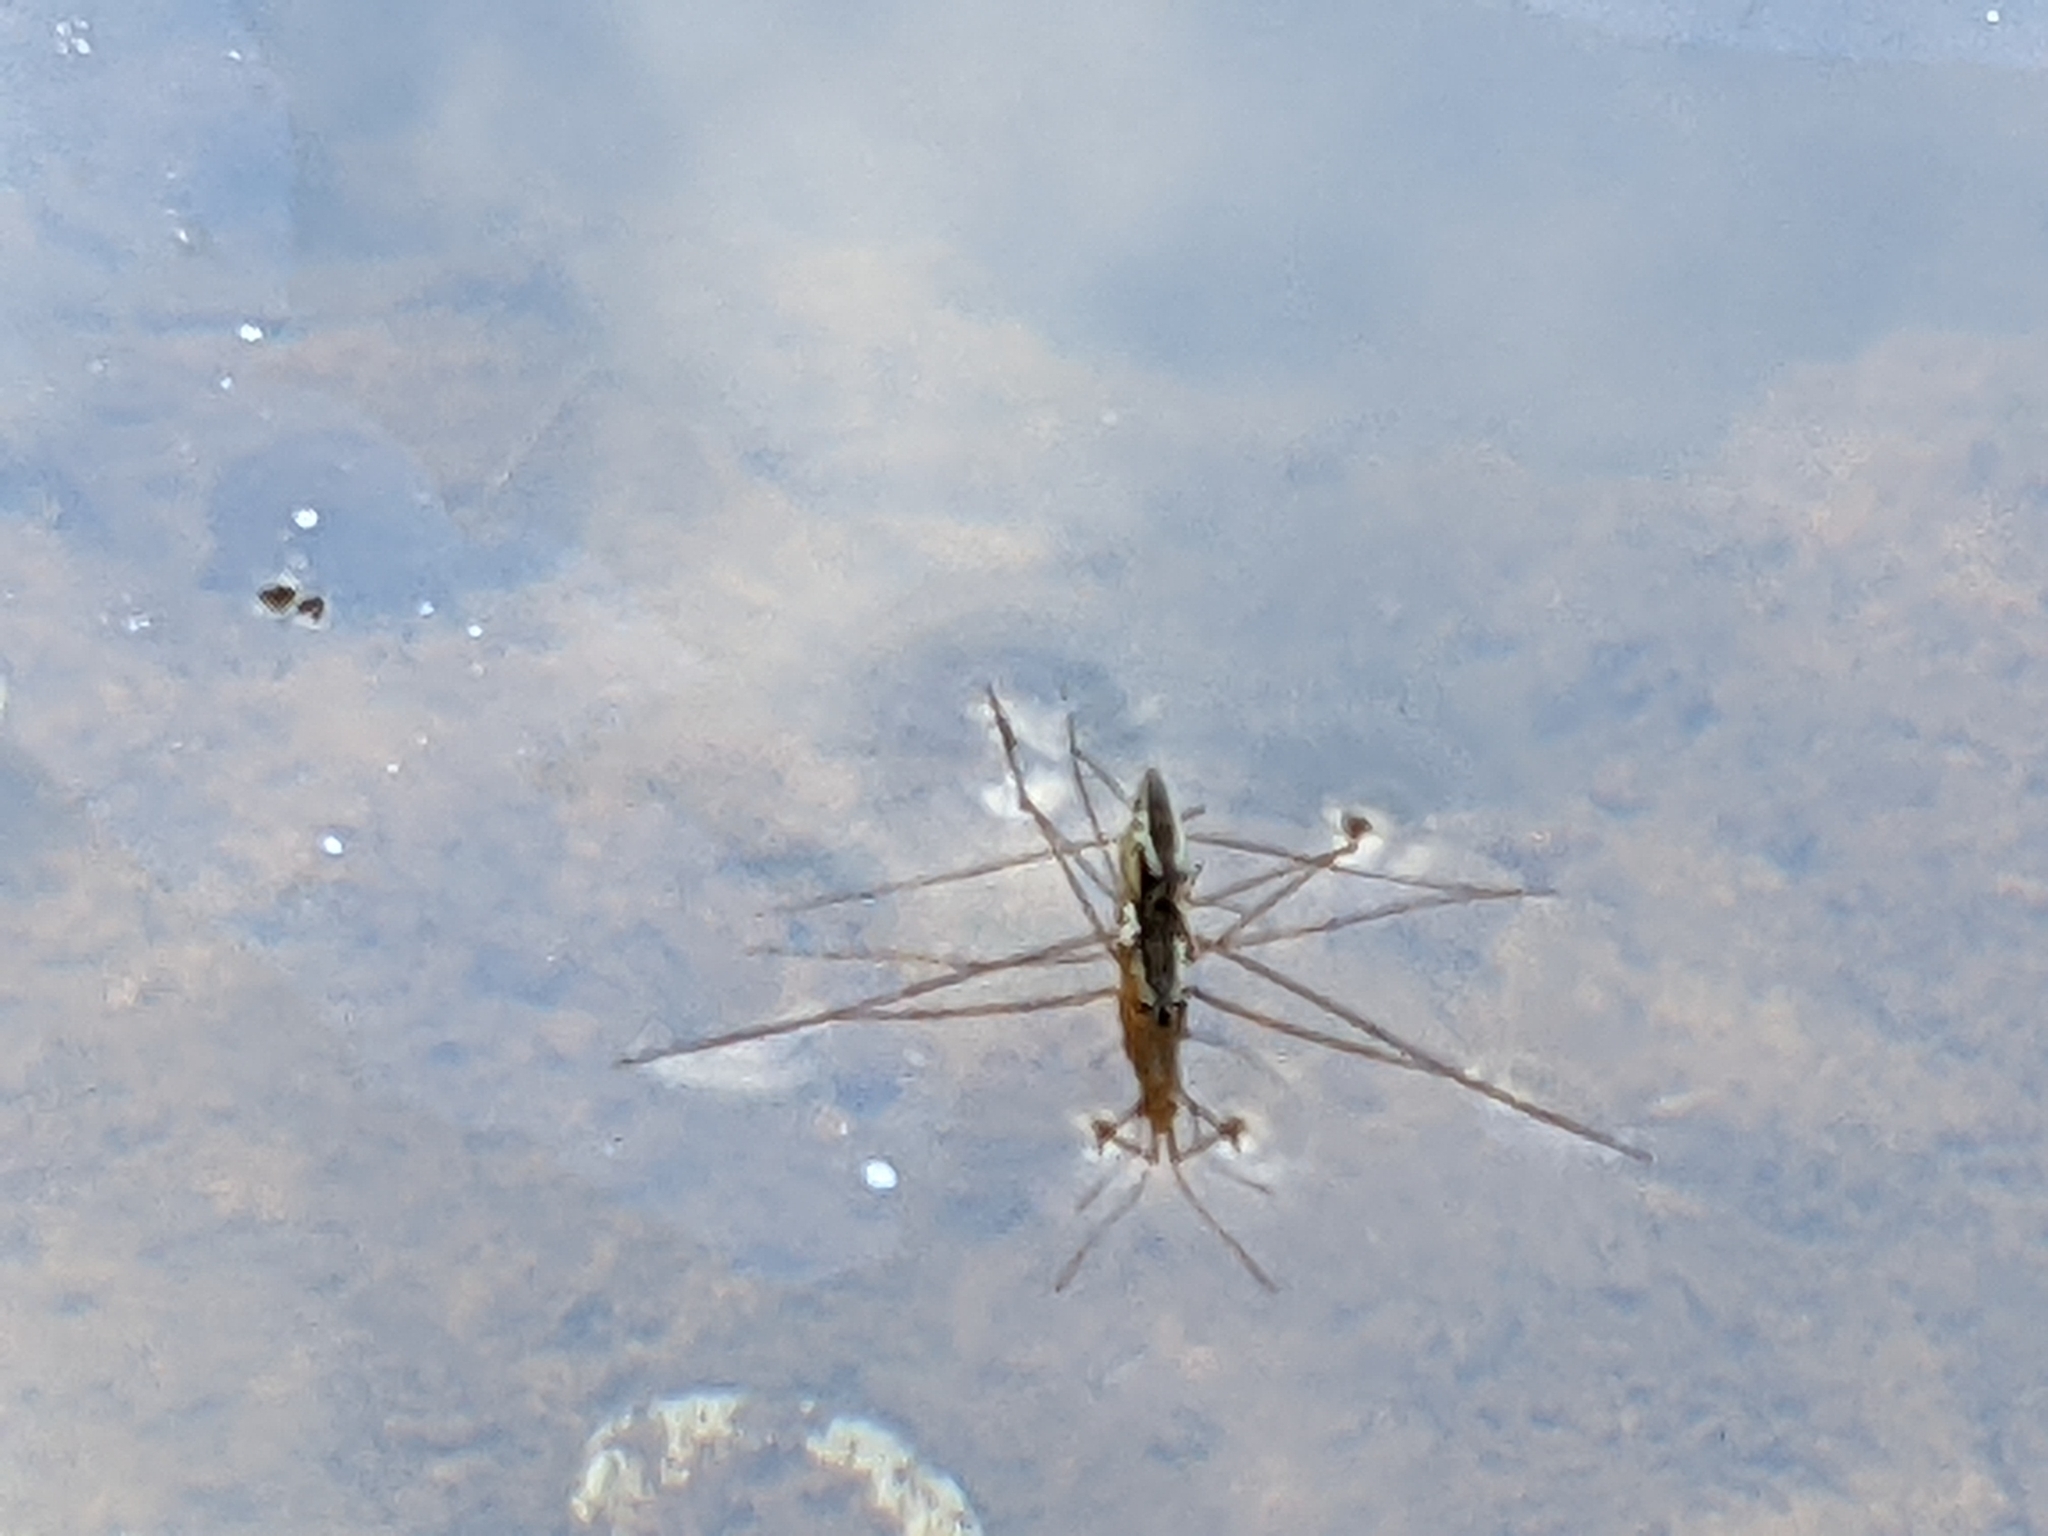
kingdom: Animalia
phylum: Arthropoda
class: Insecta
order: Hemiptera
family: Gerridae
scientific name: Gerridae
